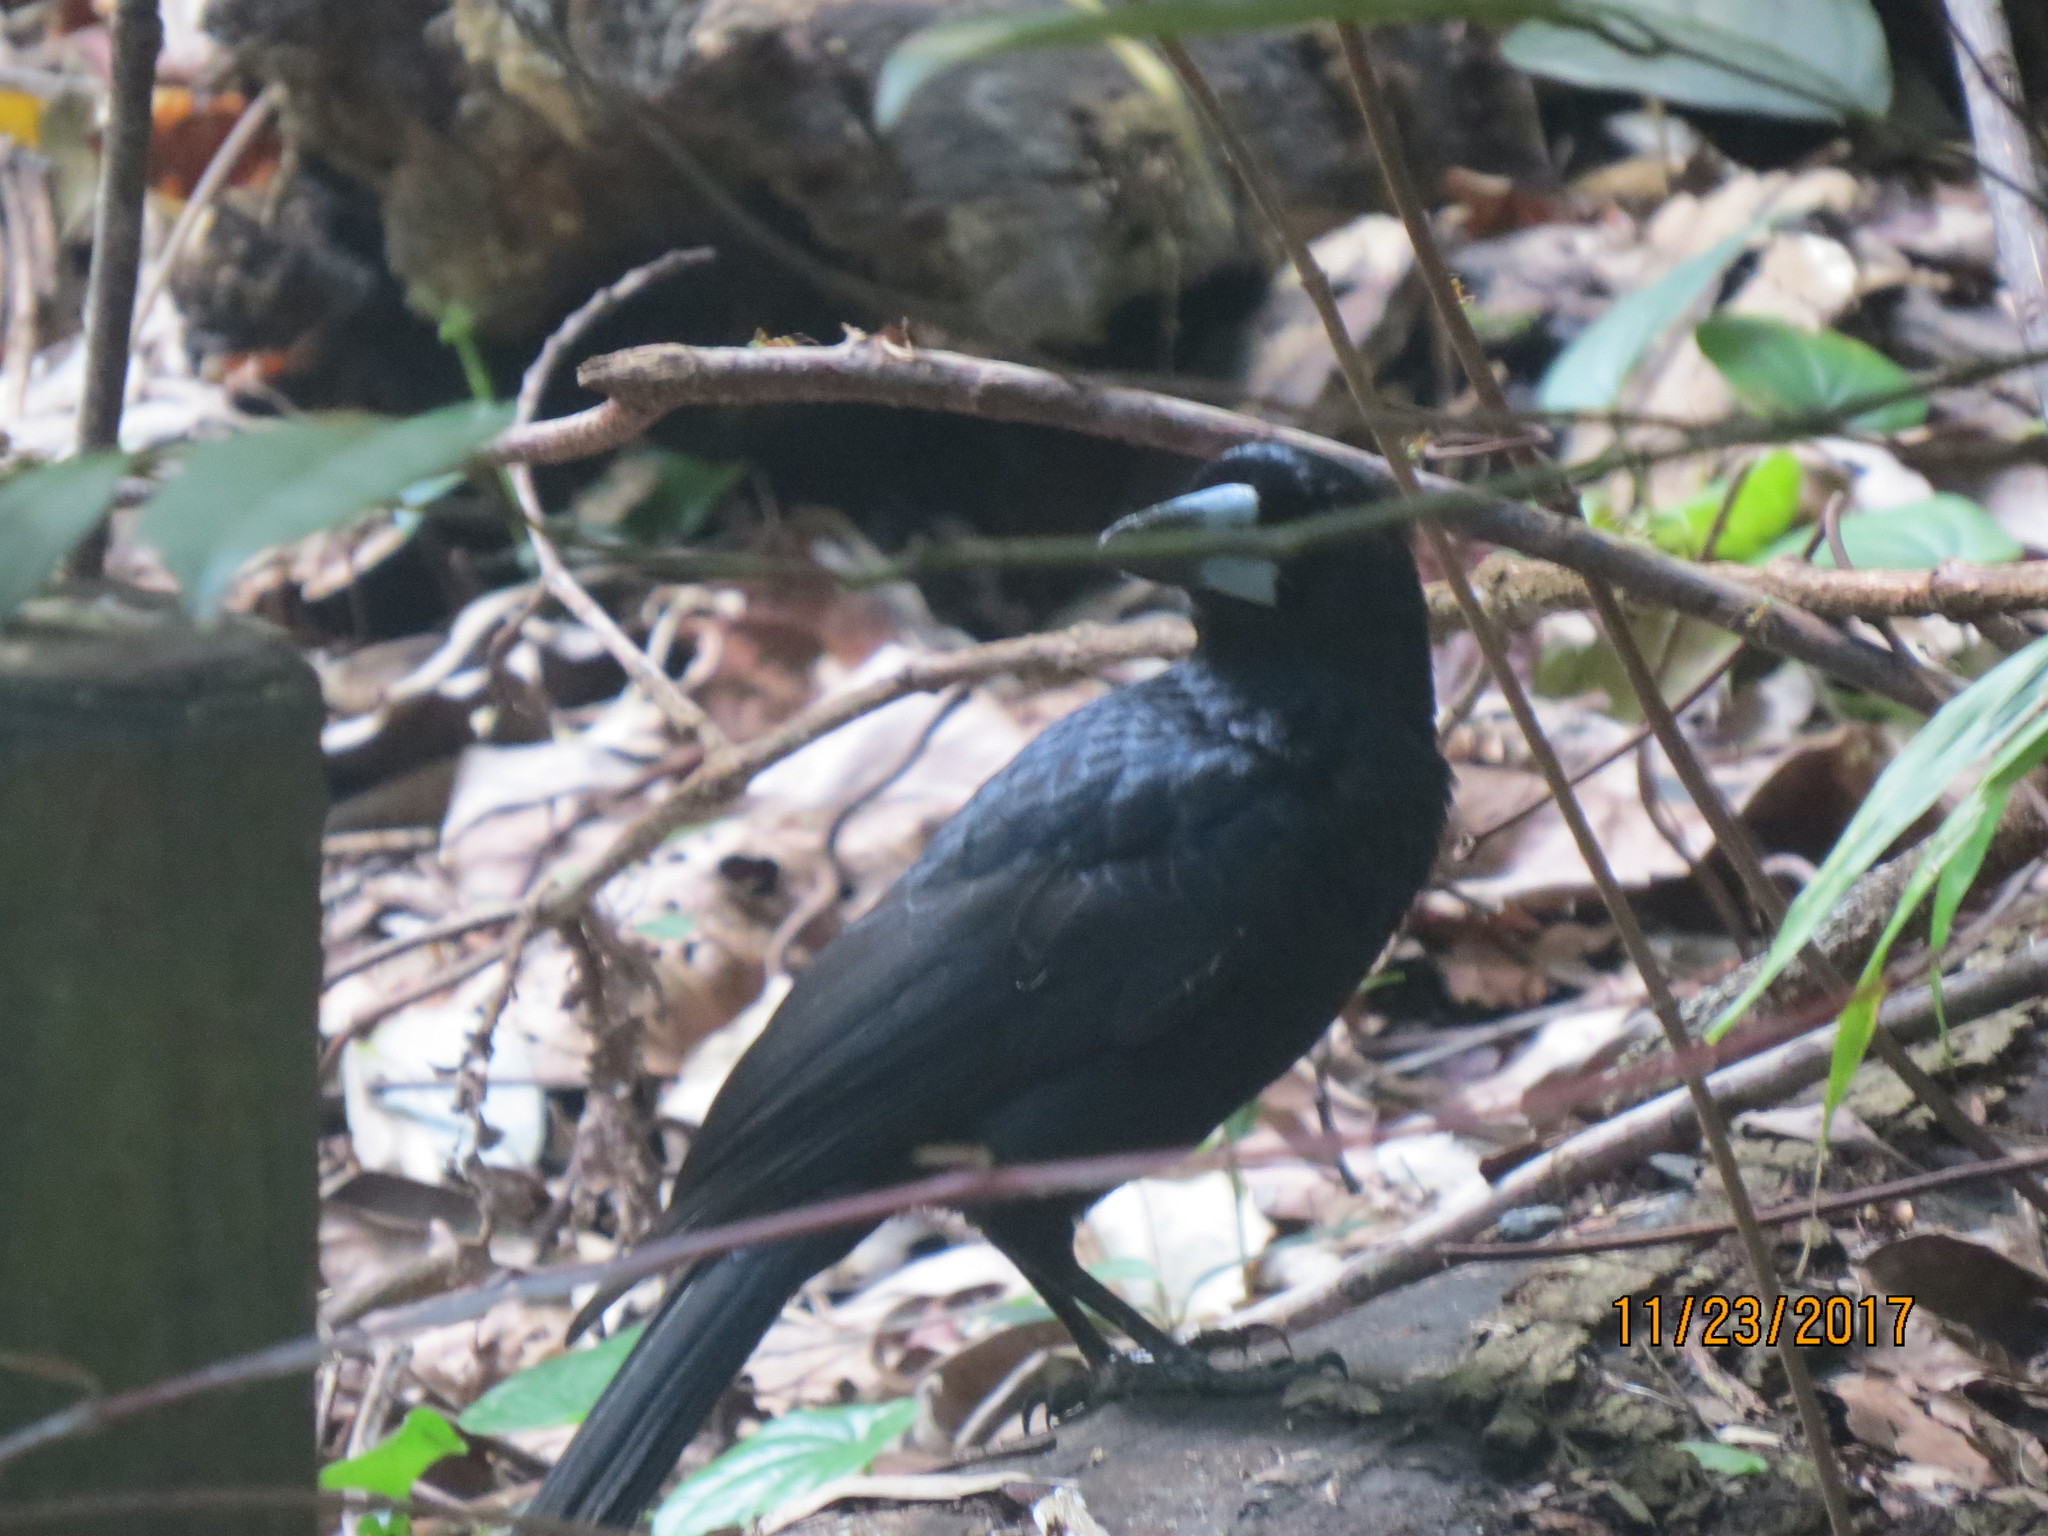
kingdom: Animalia
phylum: Chordata
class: Aves
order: Passeriformes
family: Artamidae
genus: Melloria
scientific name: Melloria quoyi
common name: Black butcherbird
